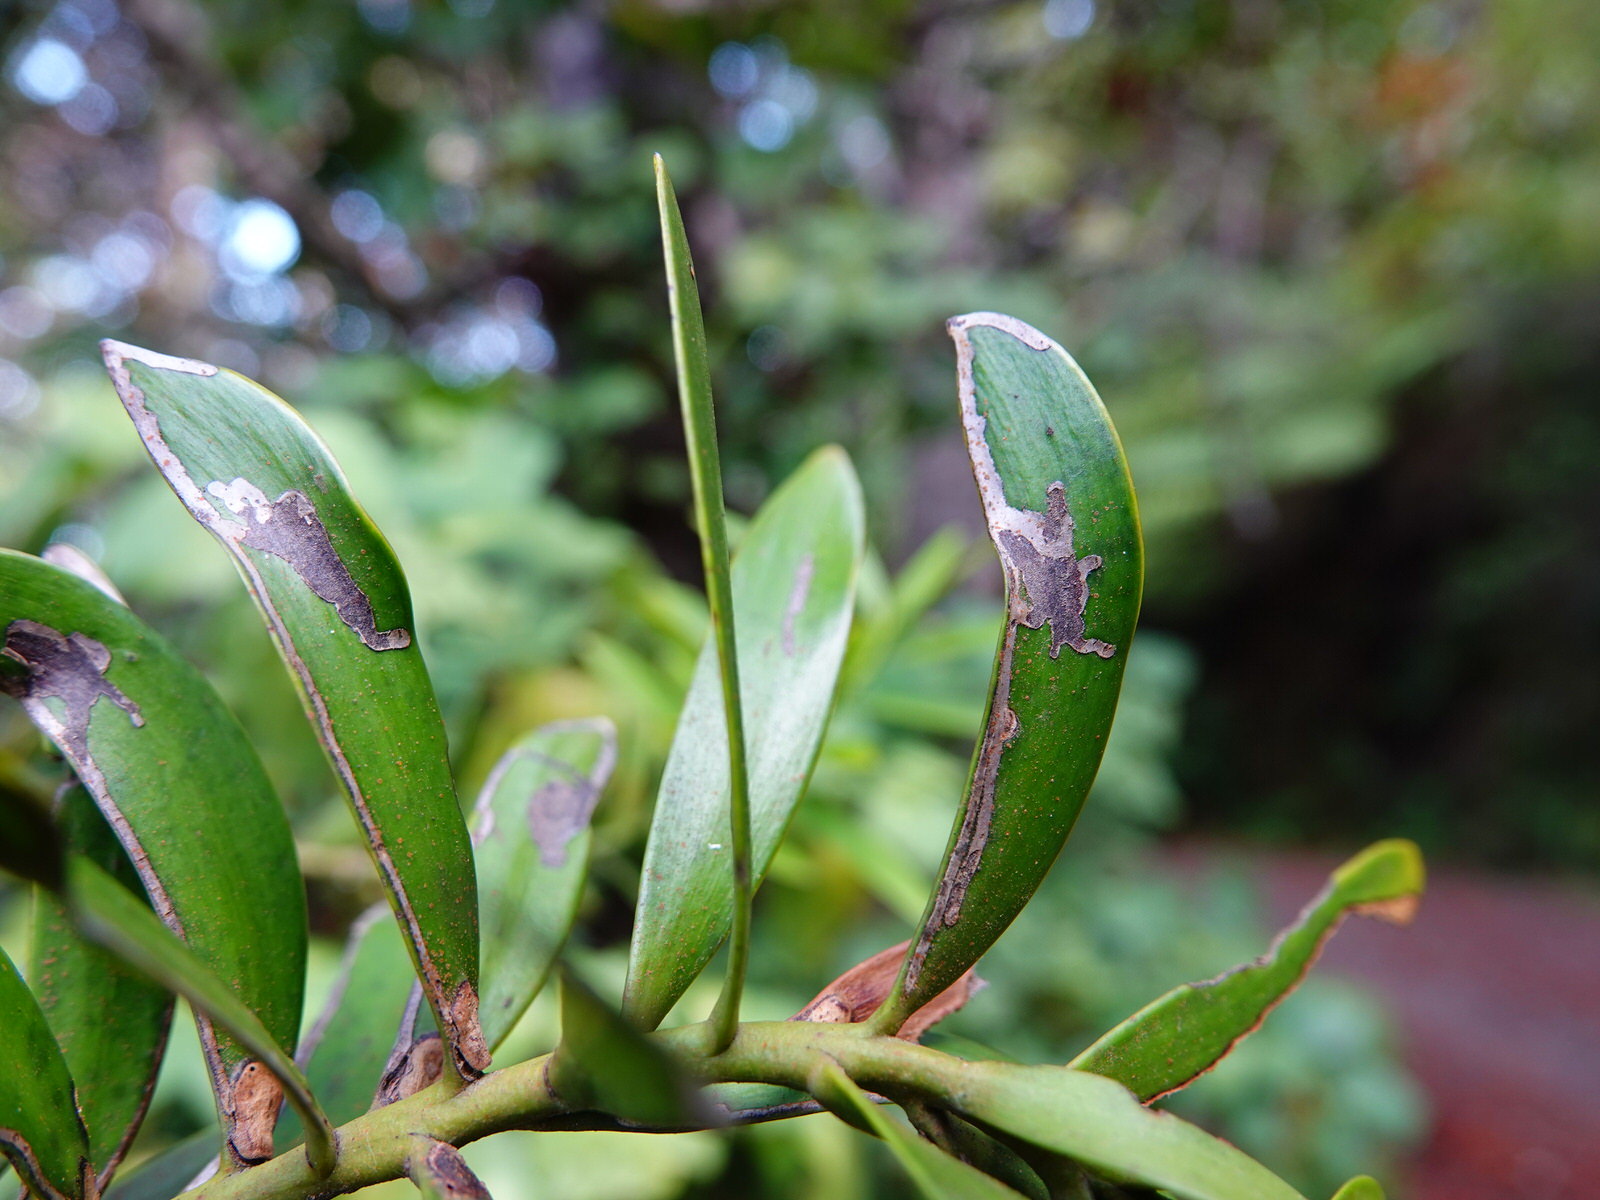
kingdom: Animalia
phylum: Arthropoda
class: Insecta
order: Lepidoptera
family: Gracillariidae
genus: Acrocercops
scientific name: Acrocercops leucotoma
